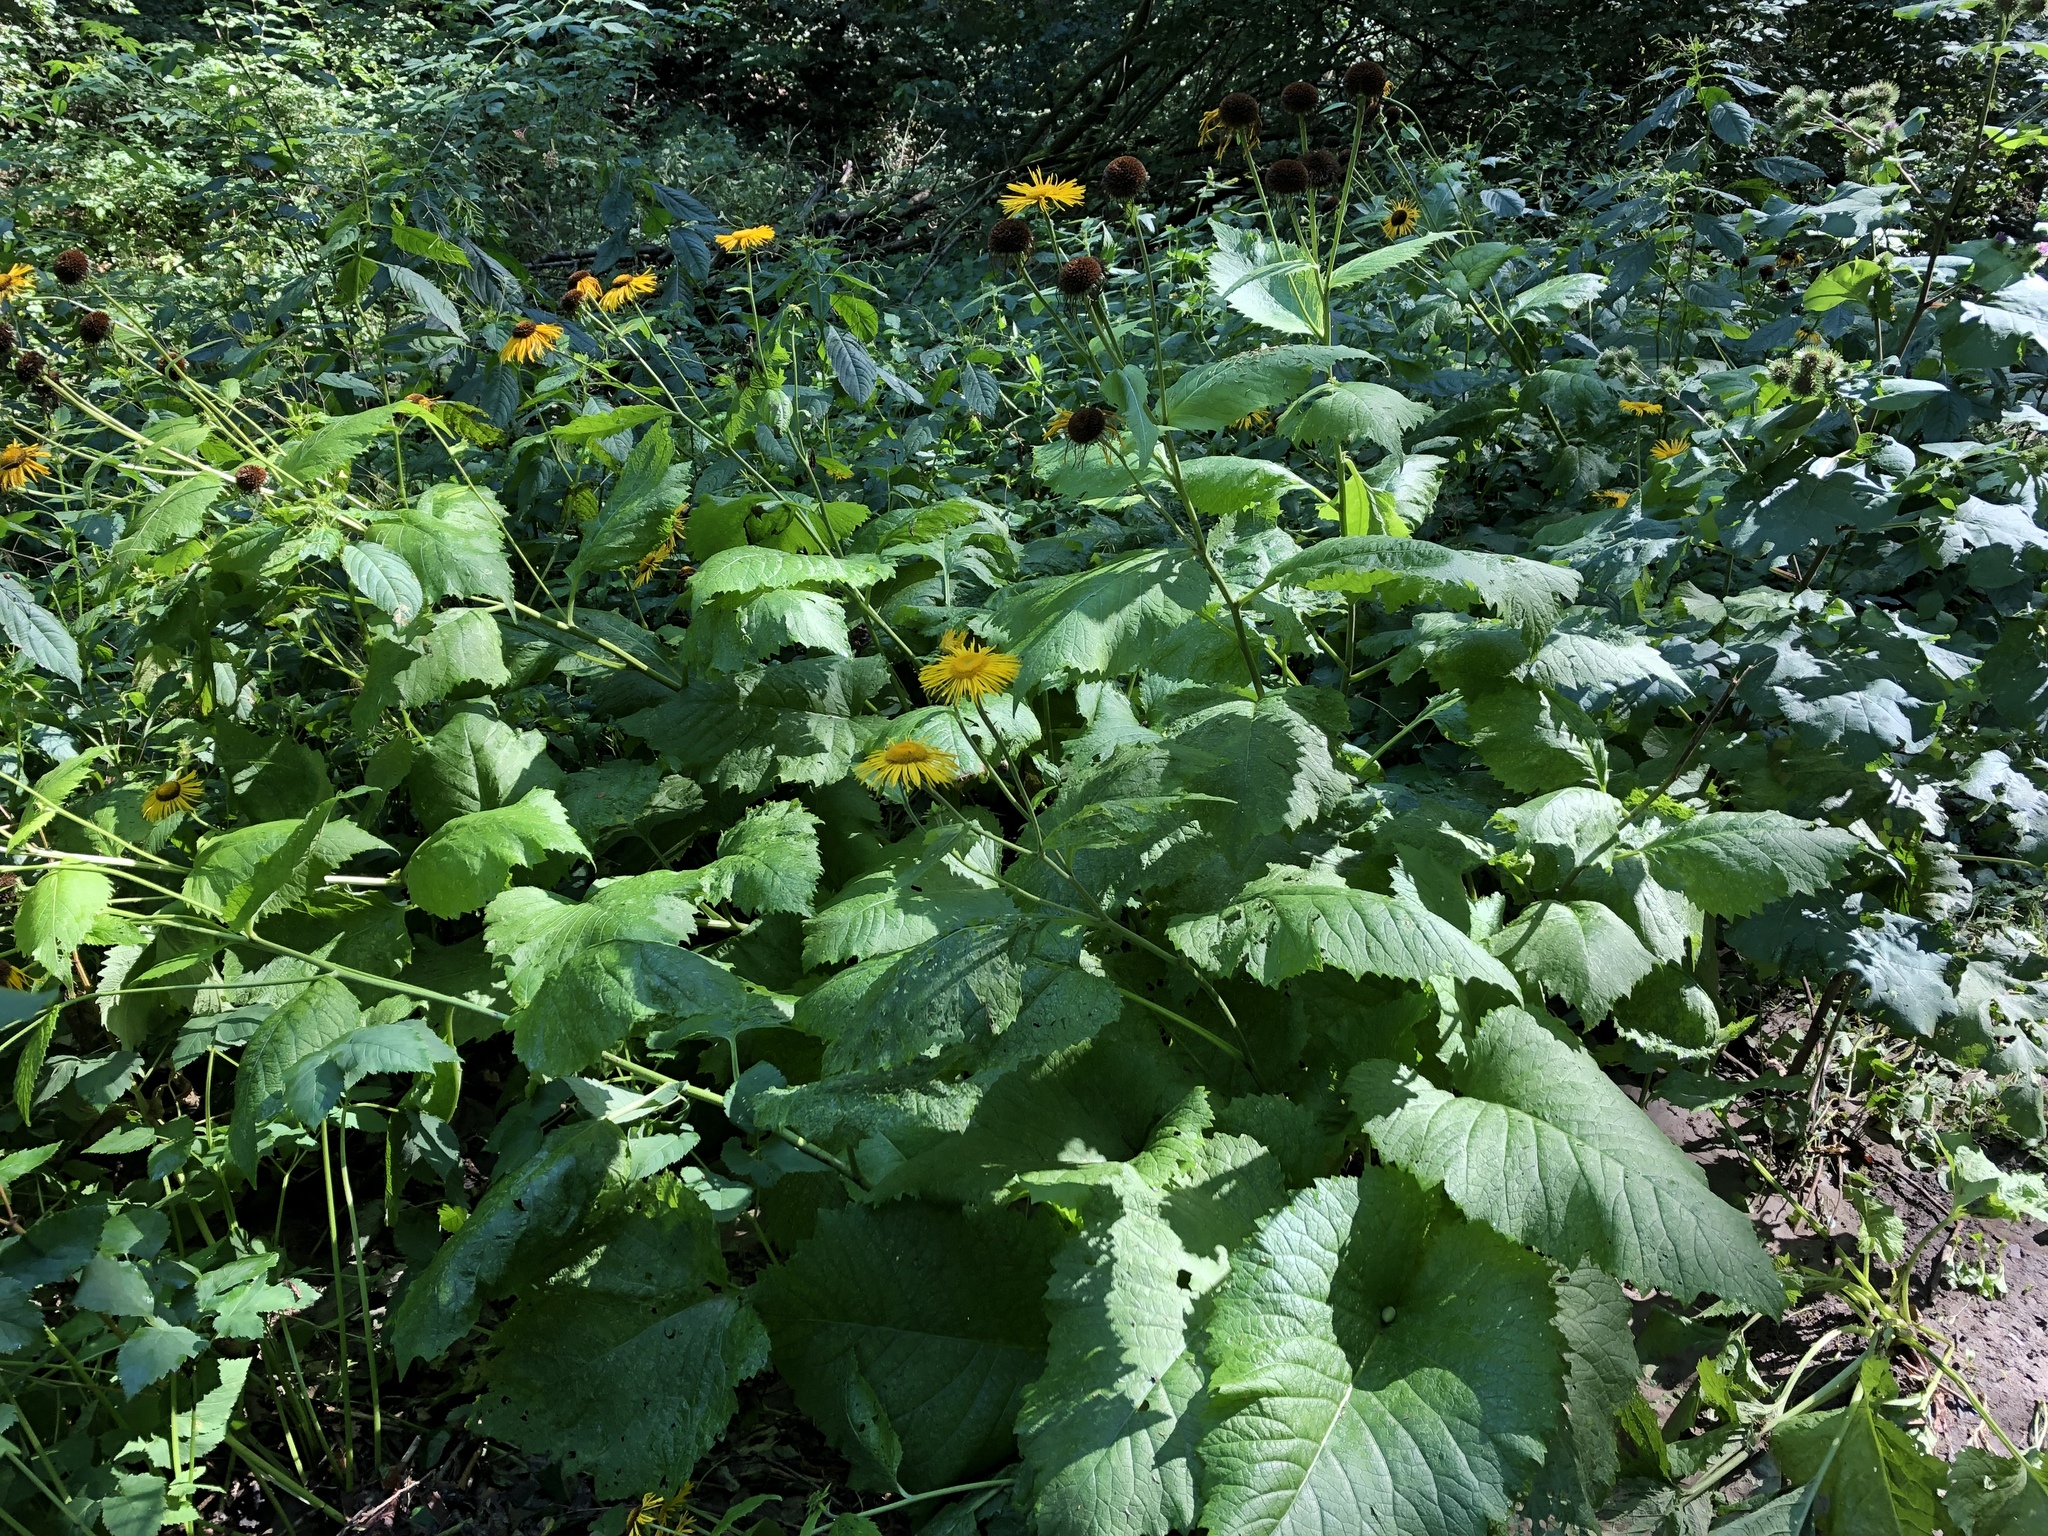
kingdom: Plantae
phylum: Tracheophyta
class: Magnoliopsida
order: Asterales
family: Asteraceae
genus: Telekia
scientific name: Telekia speciosa
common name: Yellow oxeye
